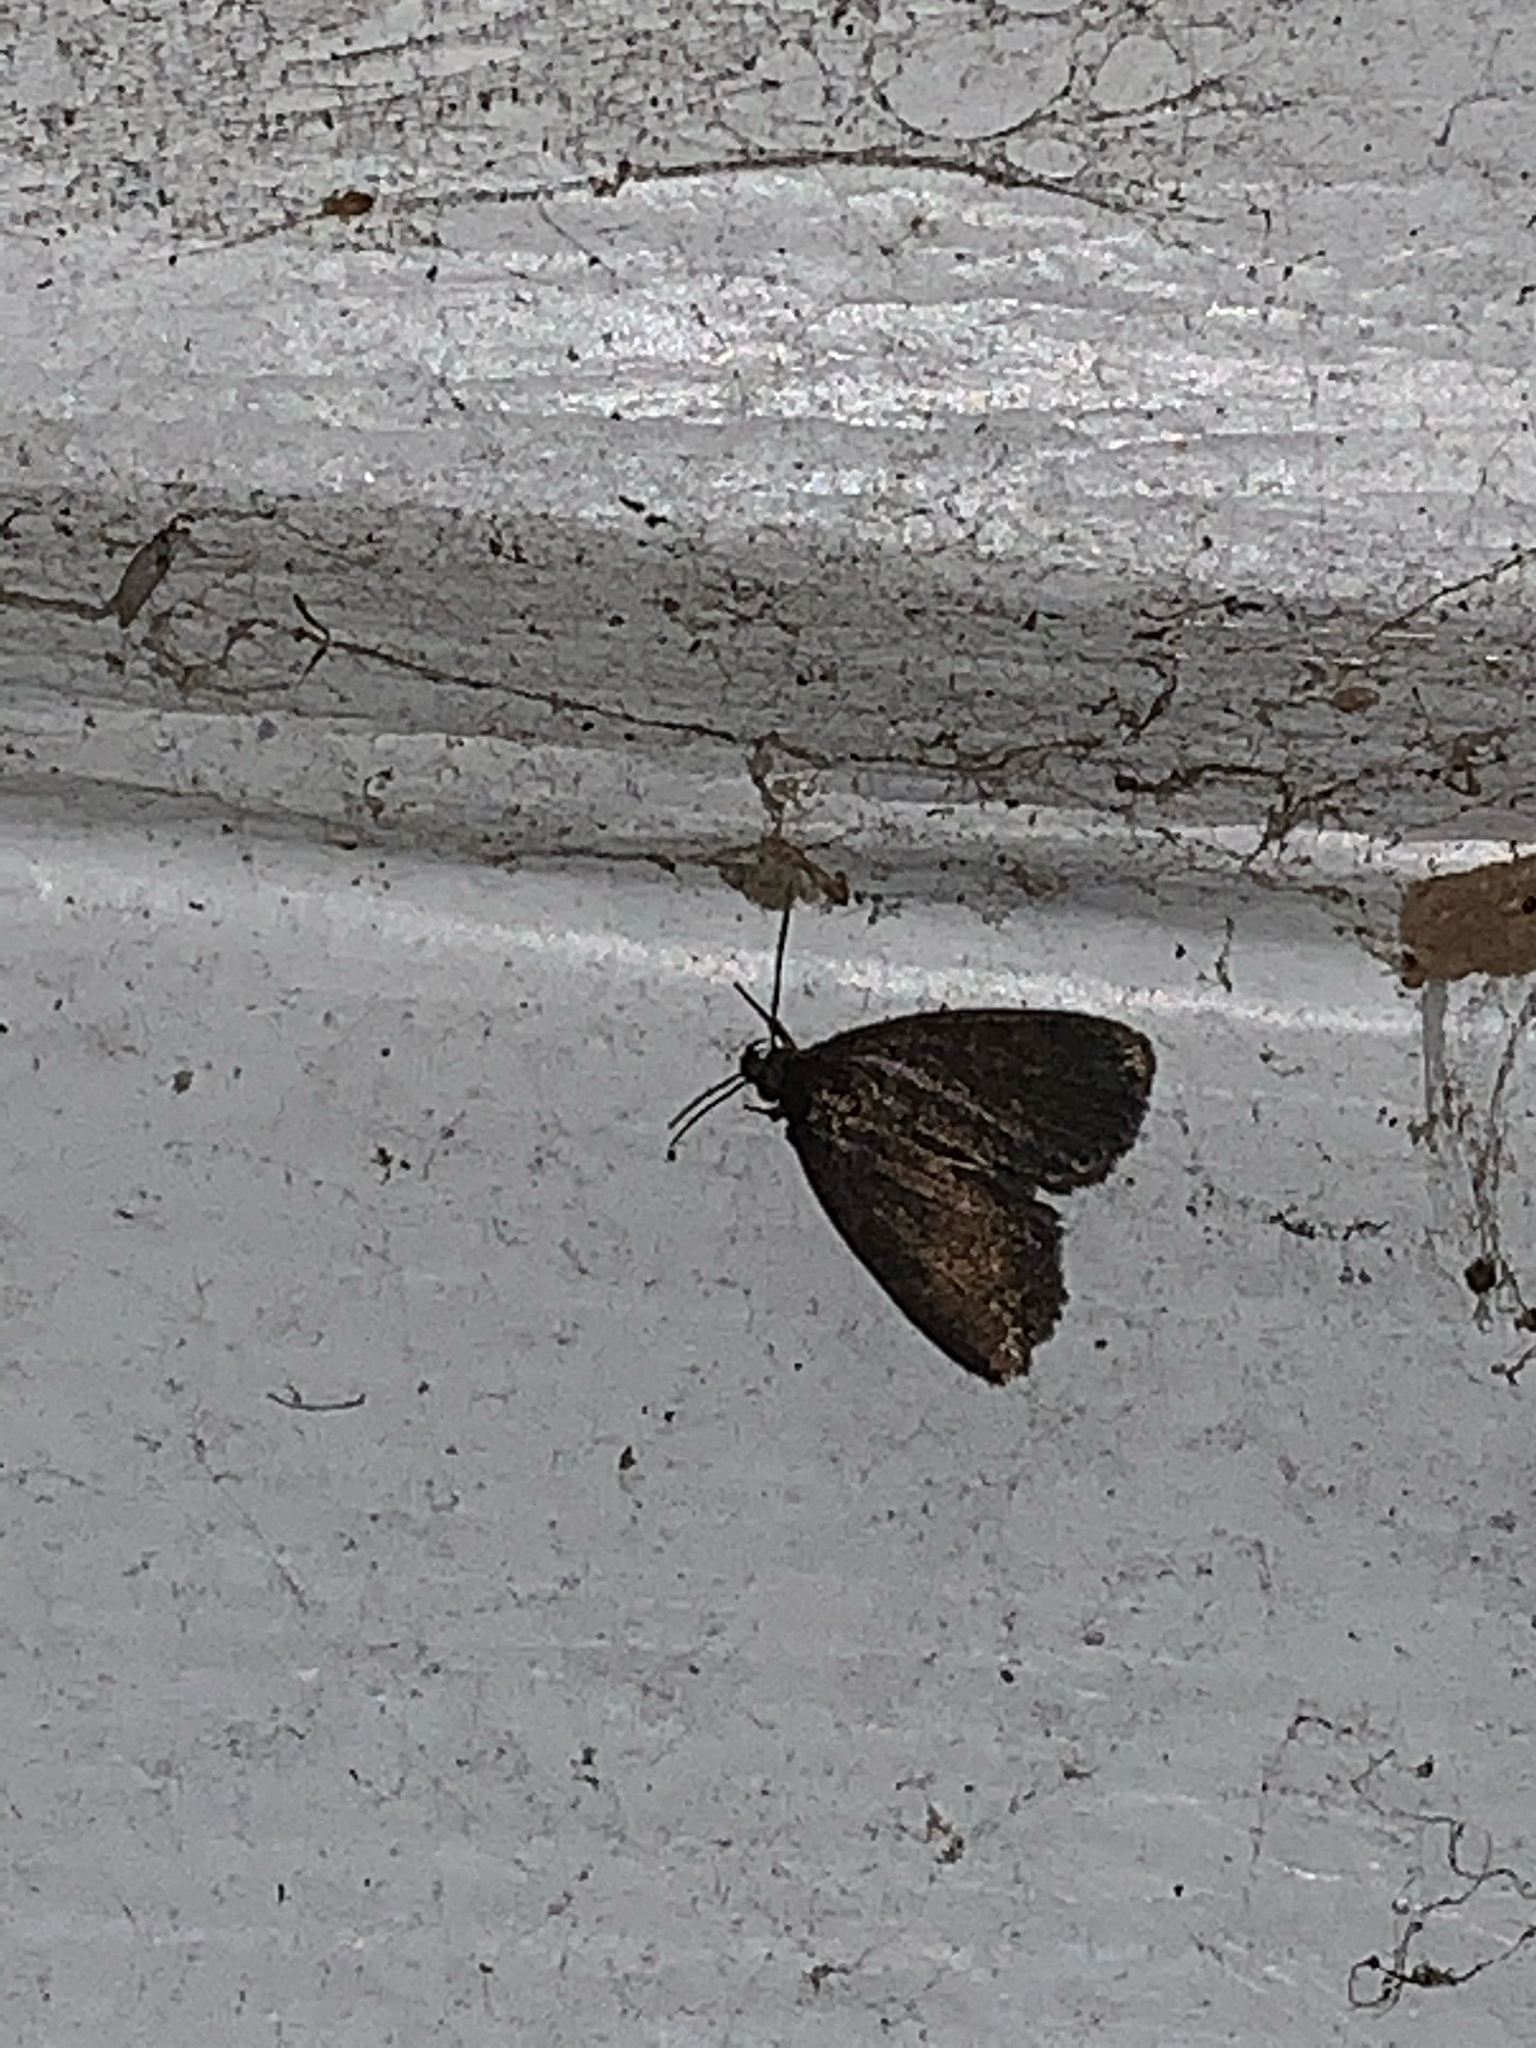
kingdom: Animalia
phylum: Arthropoda
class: Insecta
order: Lepidoptera
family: Erebidae
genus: Idia
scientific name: Idia rotundalis
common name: Rotund idia moth
